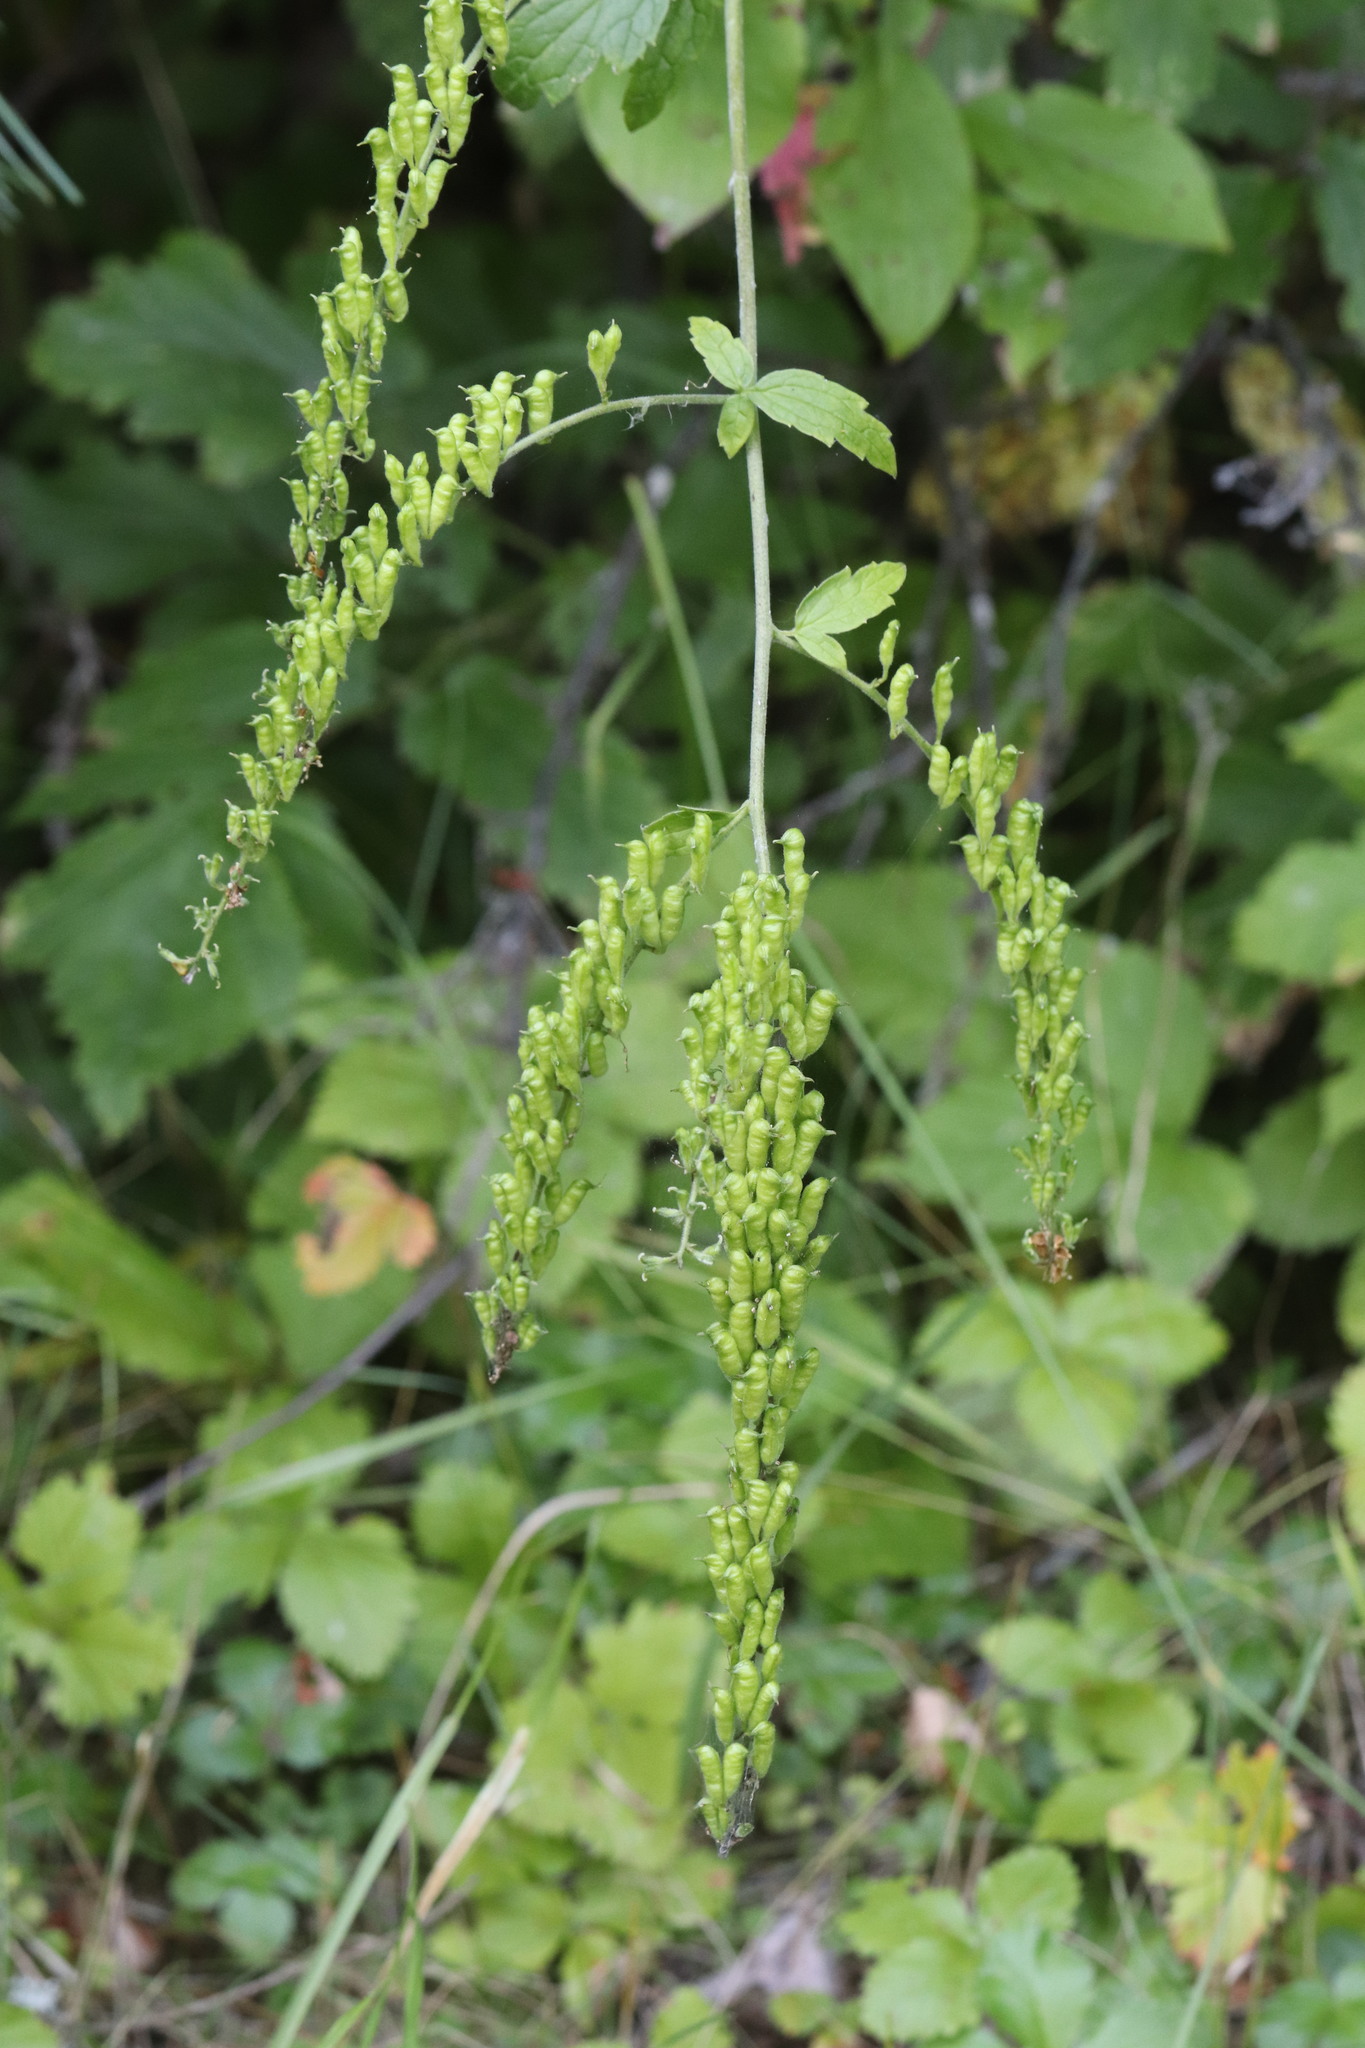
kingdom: Plantae
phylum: Tracheophyta
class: Magnoliopsida
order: Ranunculales
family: Ranunculaceae
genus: Actaea
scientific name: Actaea cimicifuga
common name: Chinese cimicifuga
